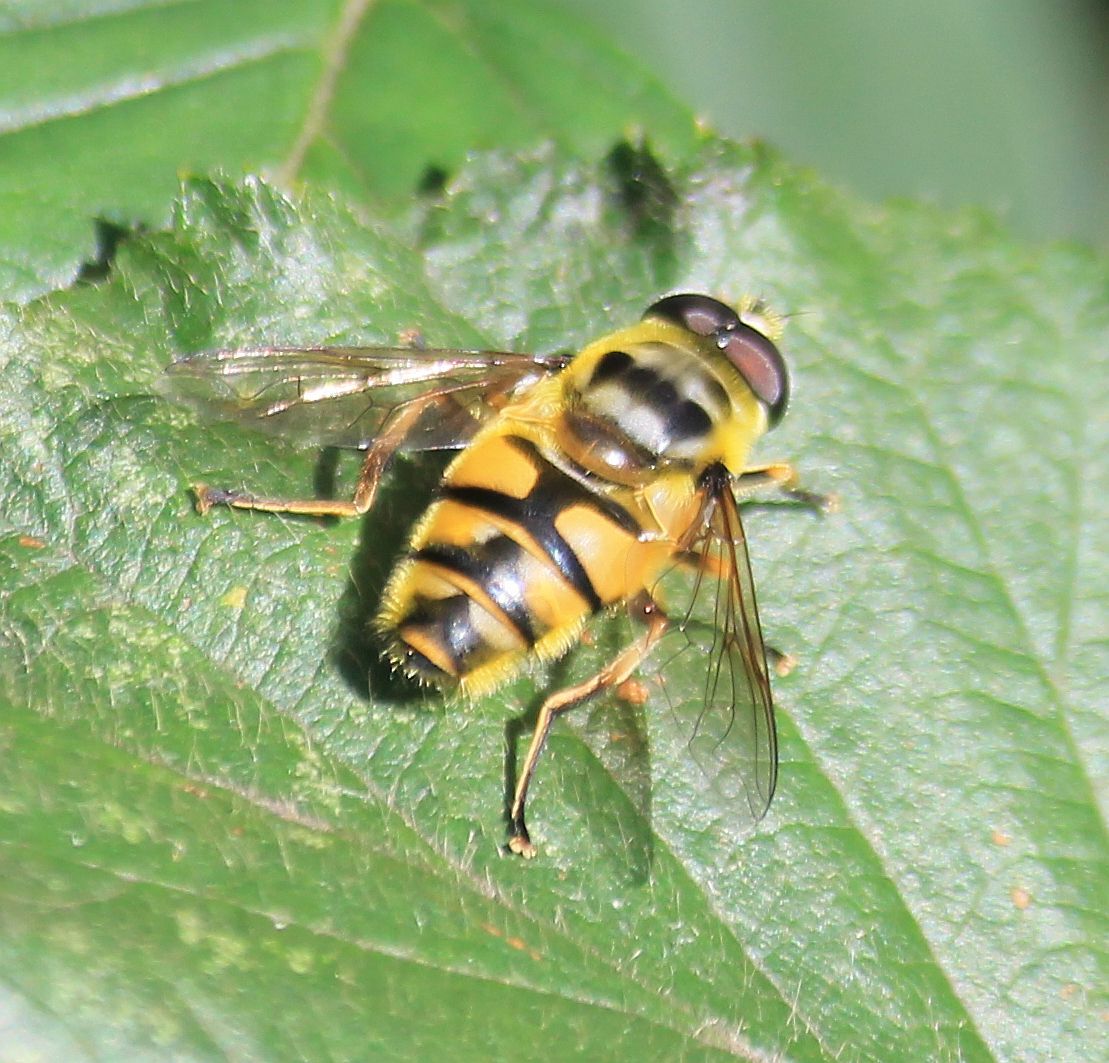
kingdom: Animalia
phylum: Arthropoda
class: Insecta
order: Diptera
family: Syrphidae
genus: Myathropa
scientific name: Myathropa florea
